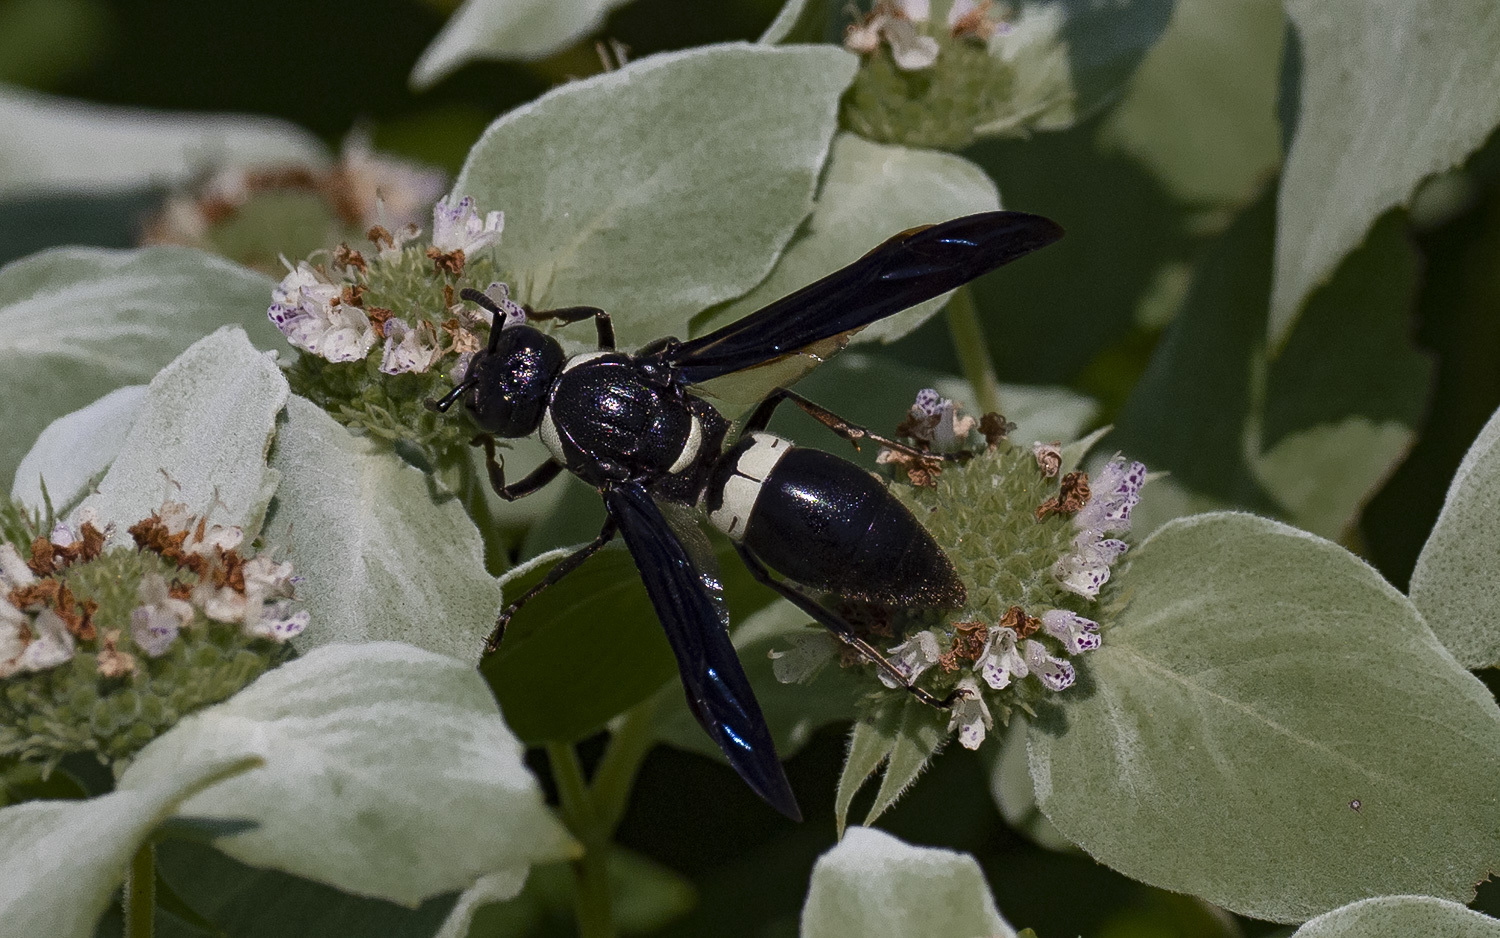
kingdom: Animalia
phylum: Arthropoda
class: Insecta
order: Hymenoptera
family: Eumenidae
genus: Monobia
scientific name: Monobia quadridens
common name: Four-toothed mason wasp
